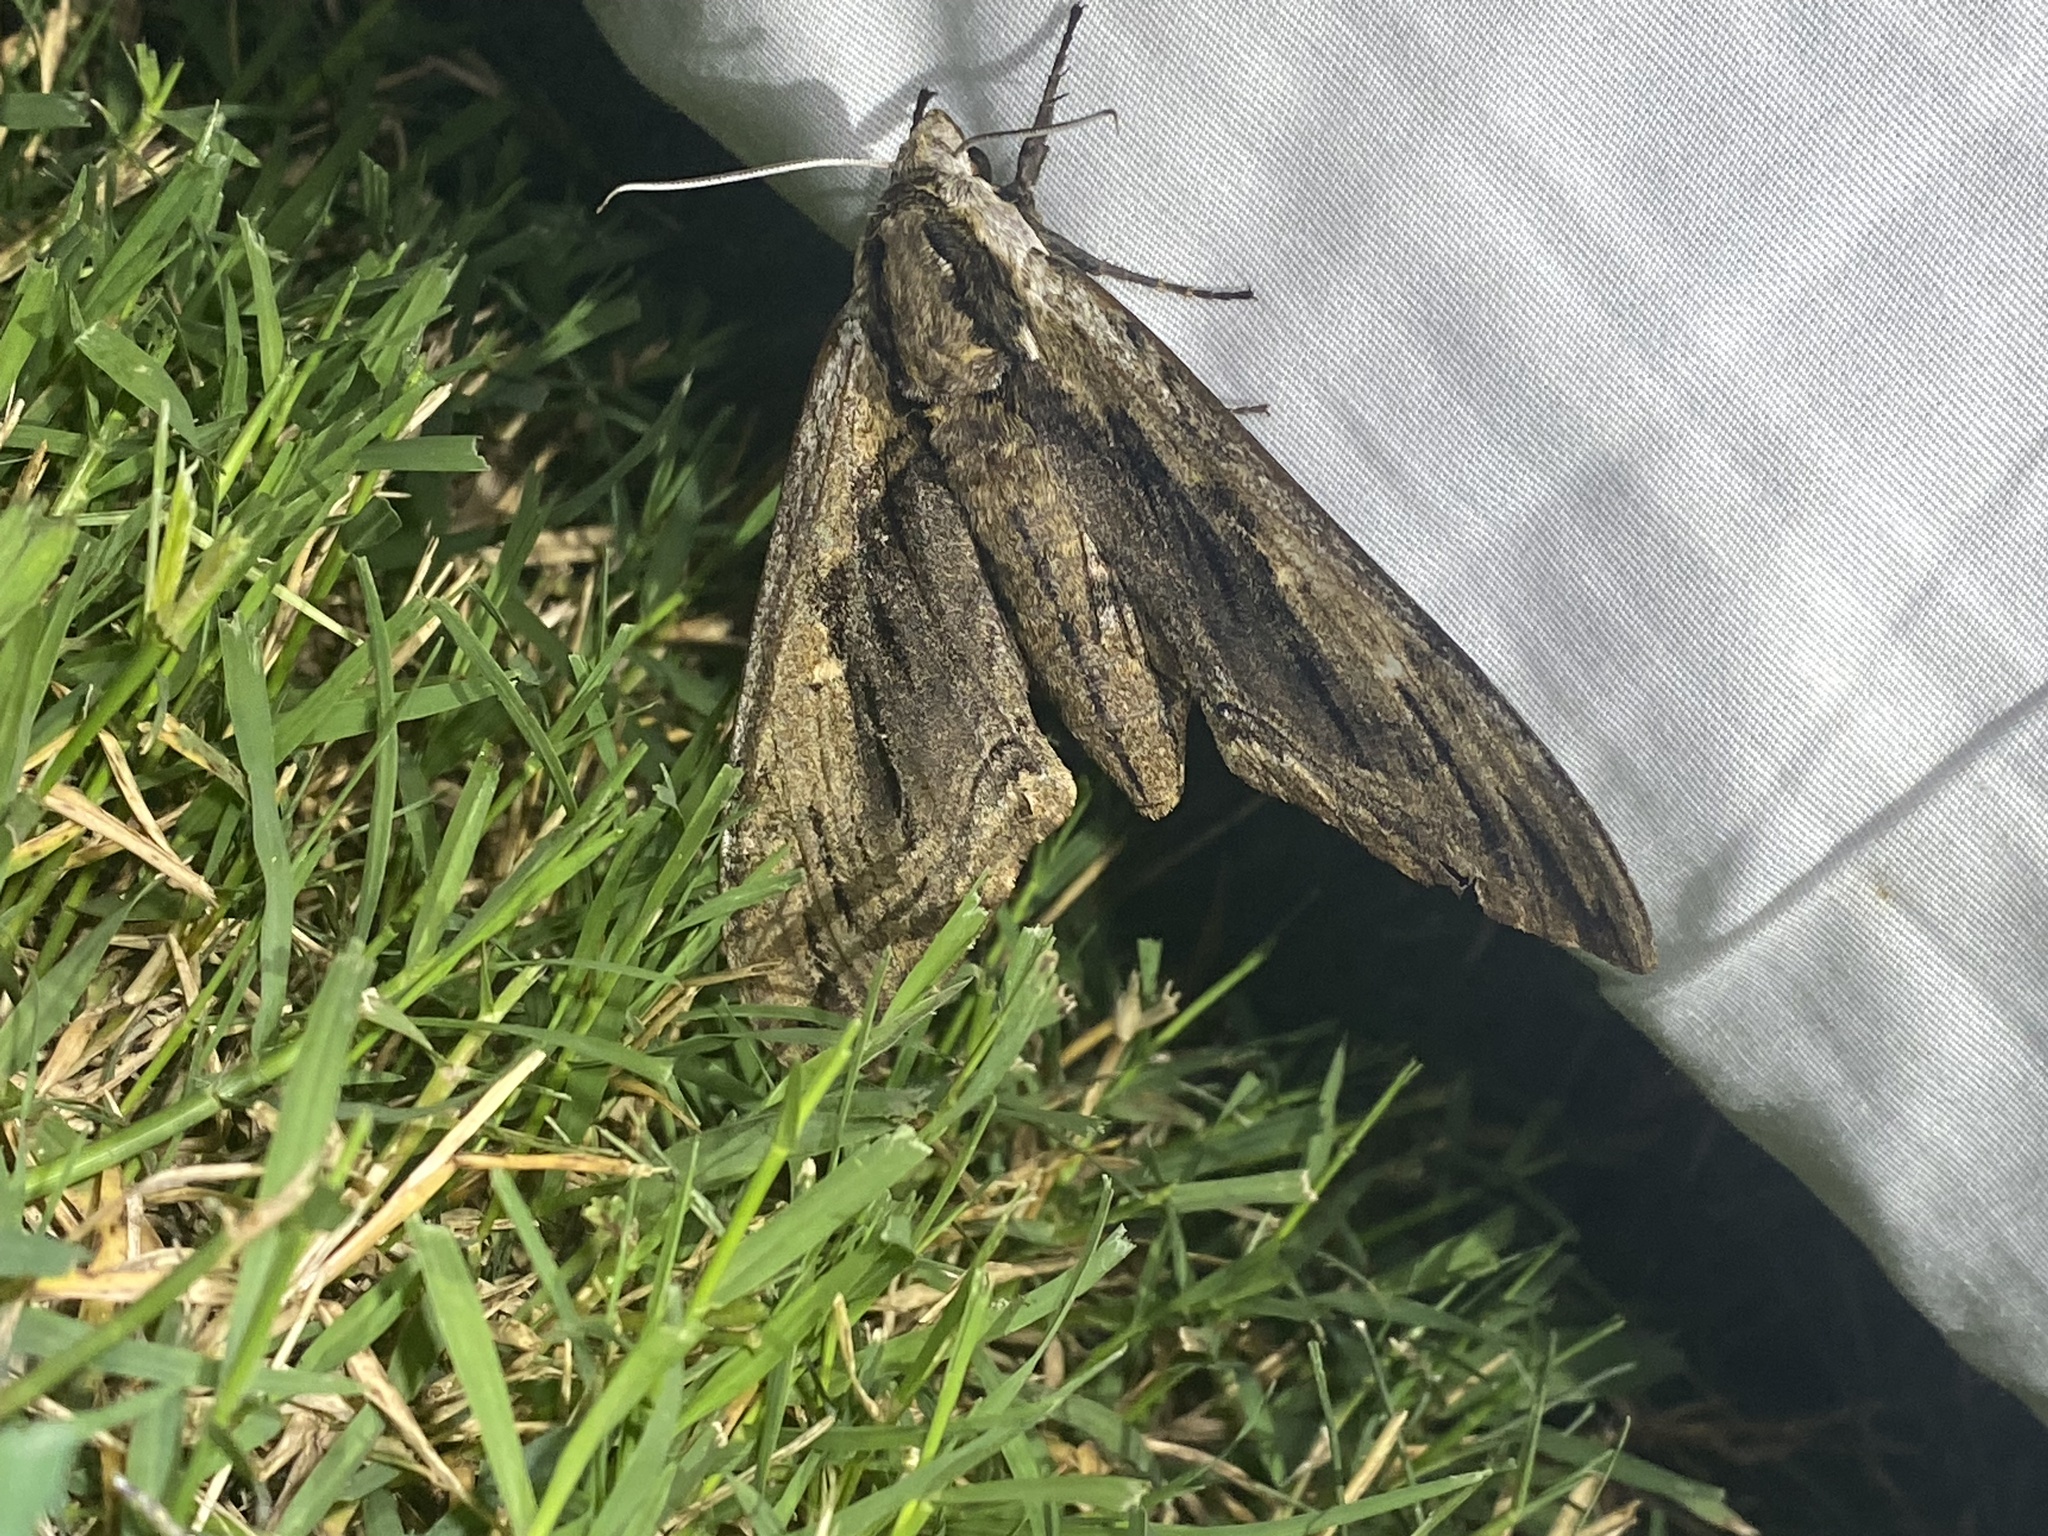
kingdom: Animalia
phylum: Arthropoda
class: Insecta
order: Lepidoptera
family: Sphingidae
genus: Ceratomia
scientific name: Ceratomia amyntor
